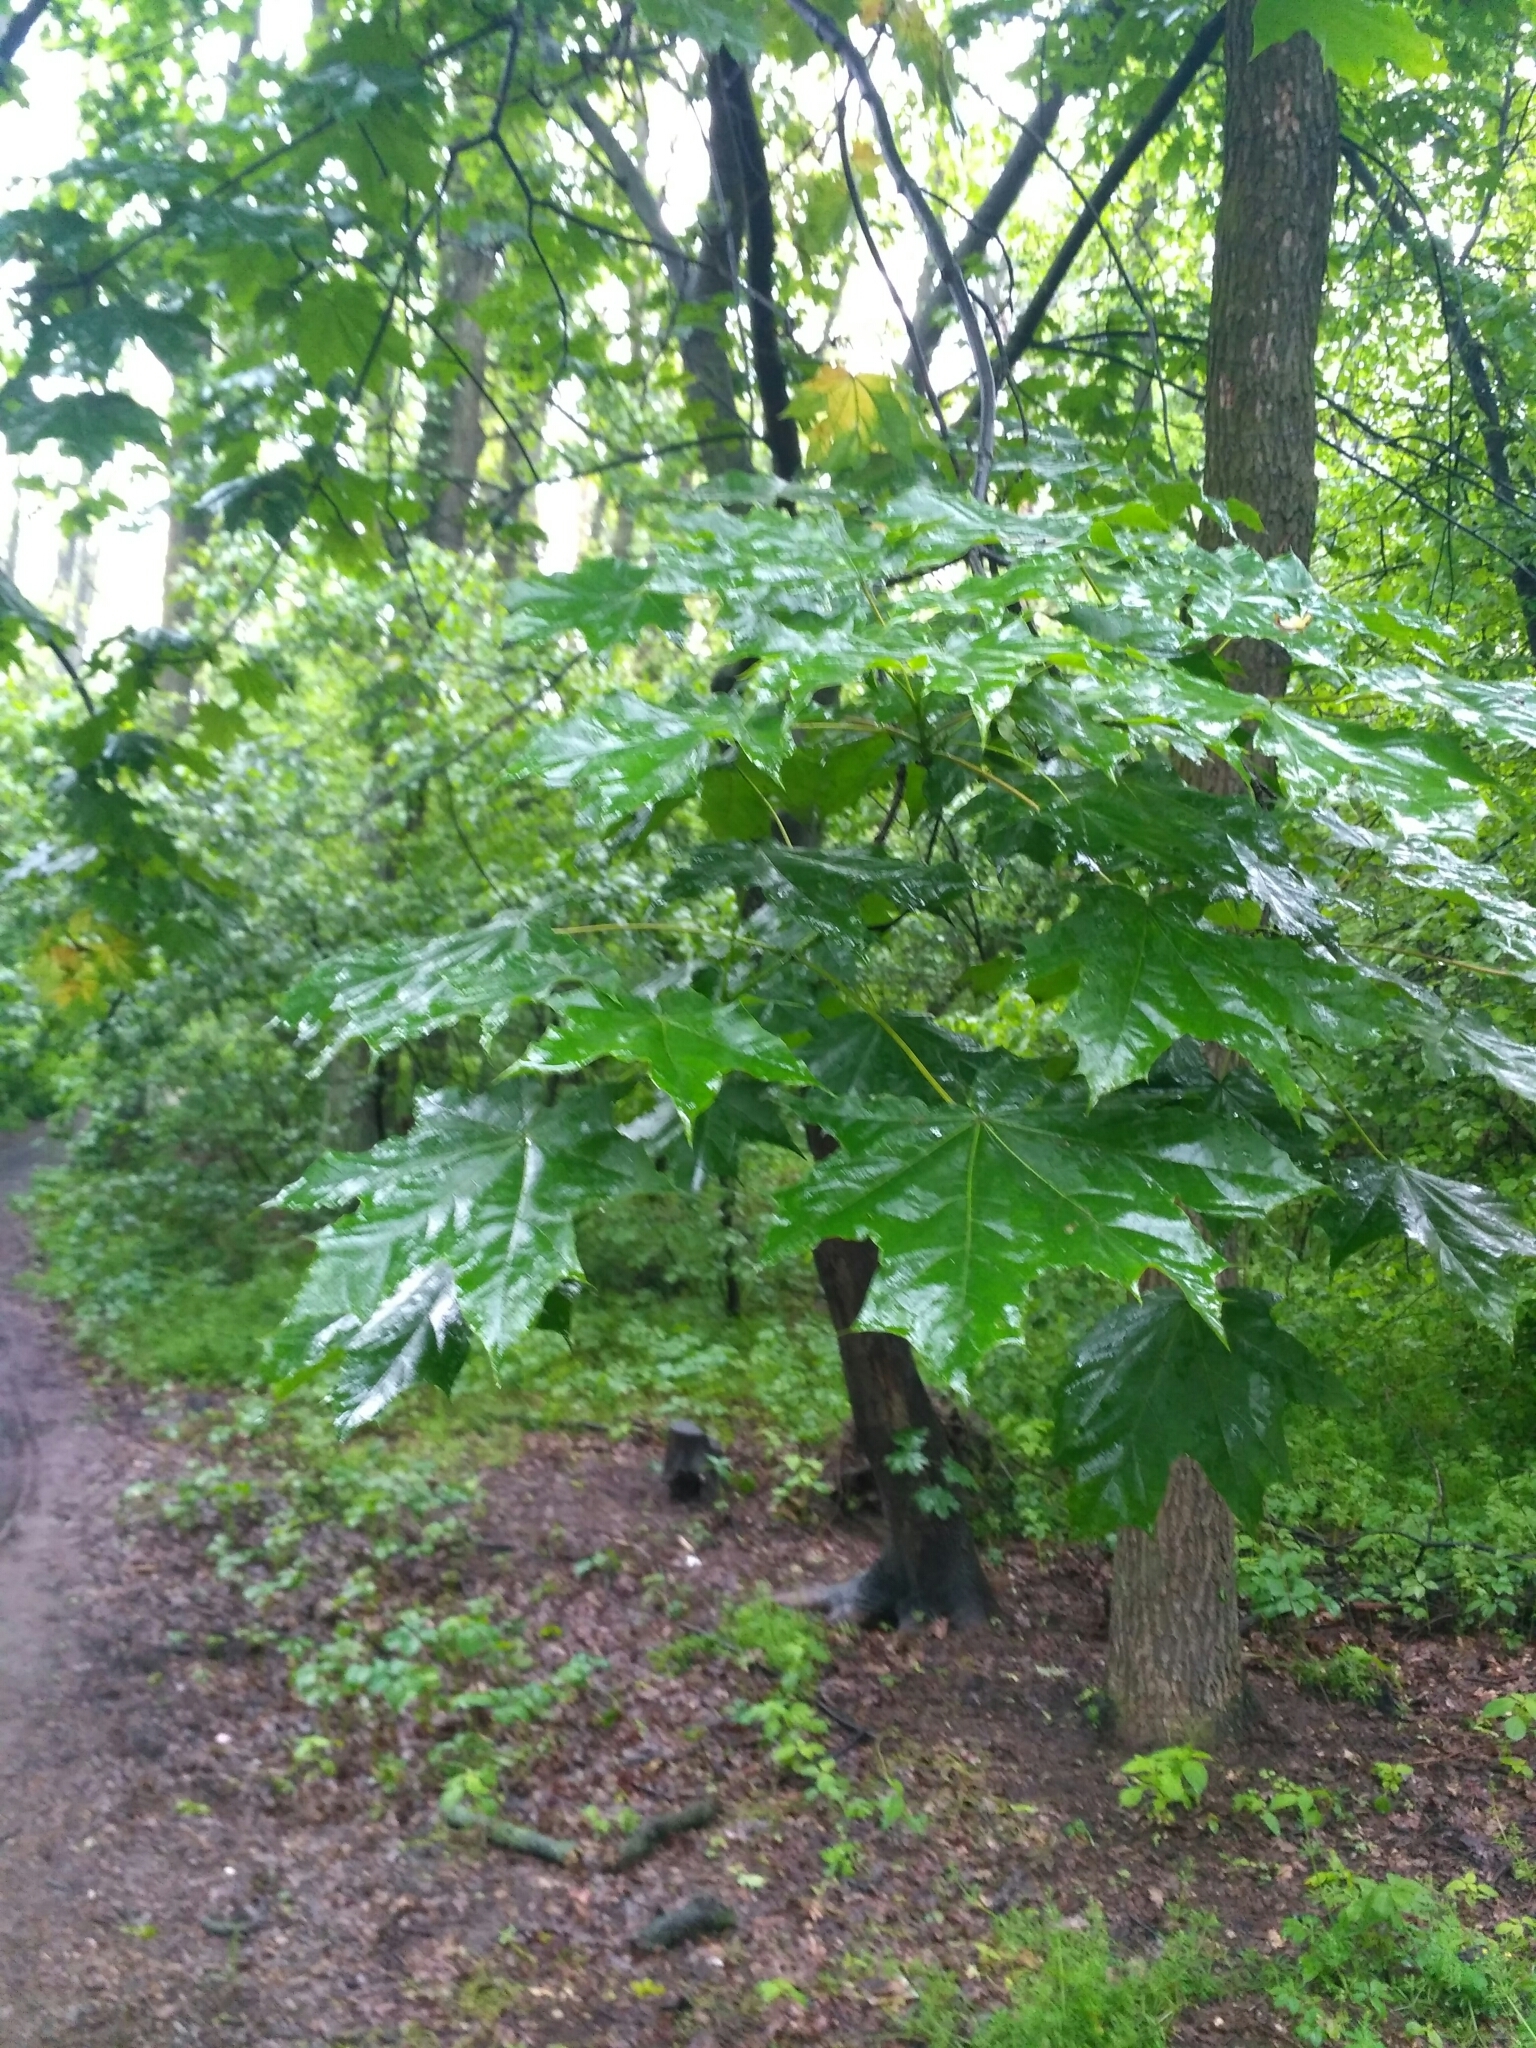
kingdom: Plantae
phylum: Tracheophyta
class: Magnoliopsida
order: Sapindales
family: Sapindaceae
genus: Acer
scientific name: Acer platanoides
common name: Norway maple
